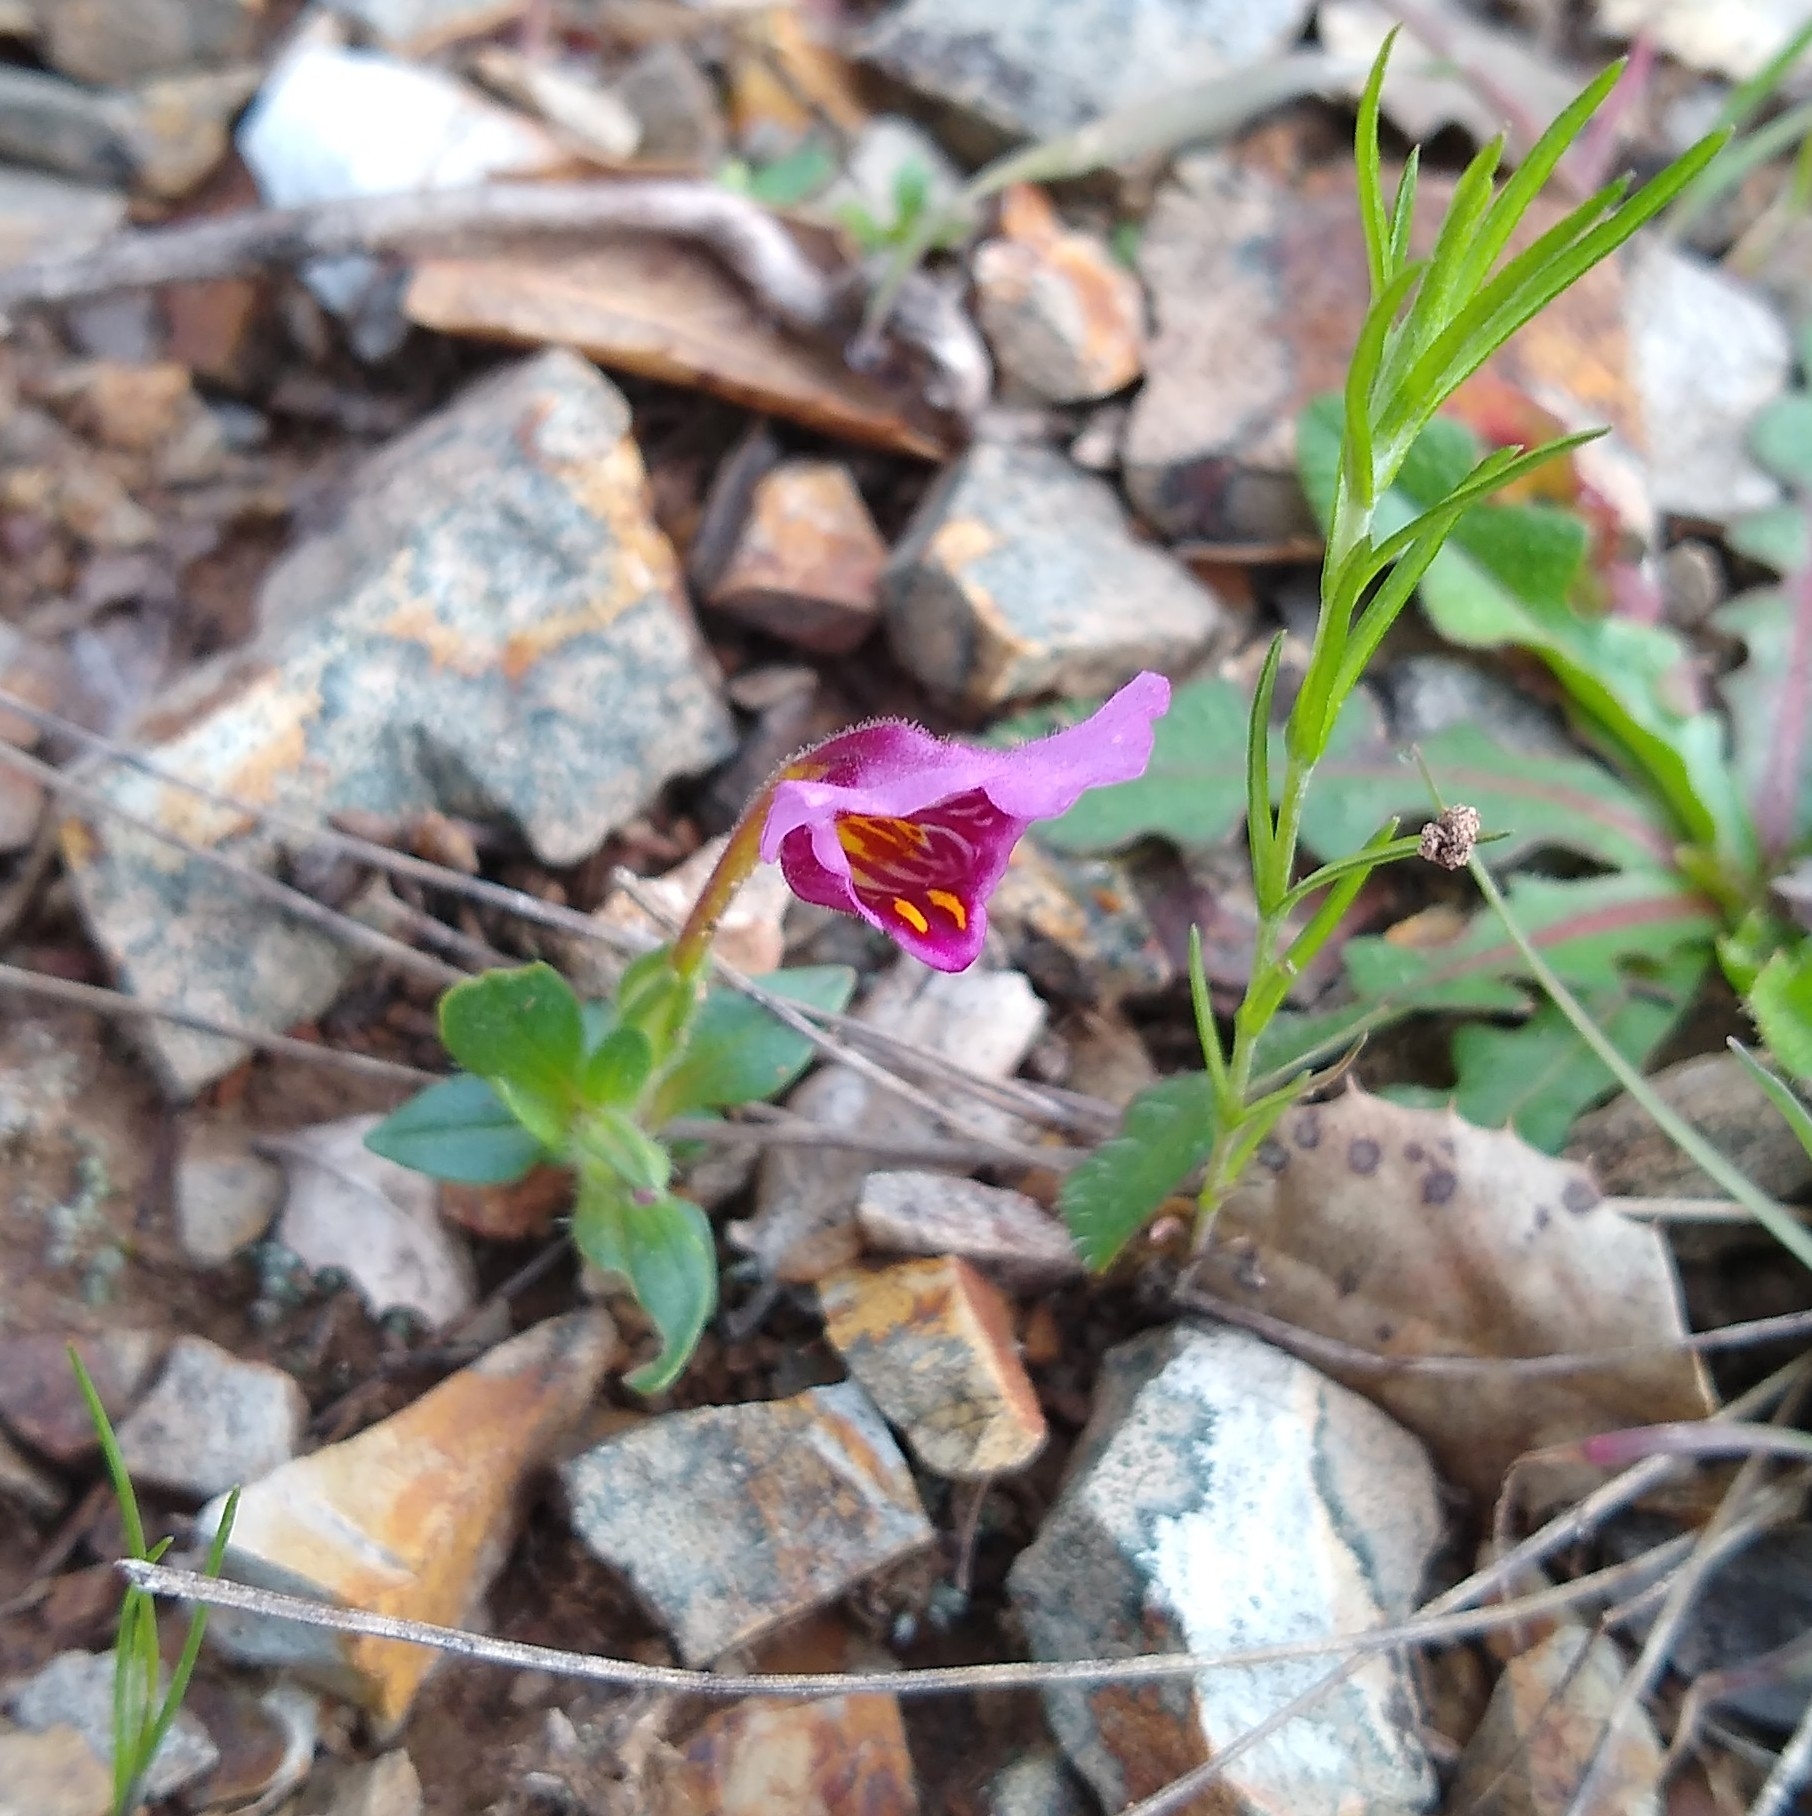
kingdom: Plantae
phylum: Tracheophyta
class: Magnoliopsida
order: Lamiales
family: Phrymaceae
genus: Diplacus
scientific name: Diplacus douglasii
